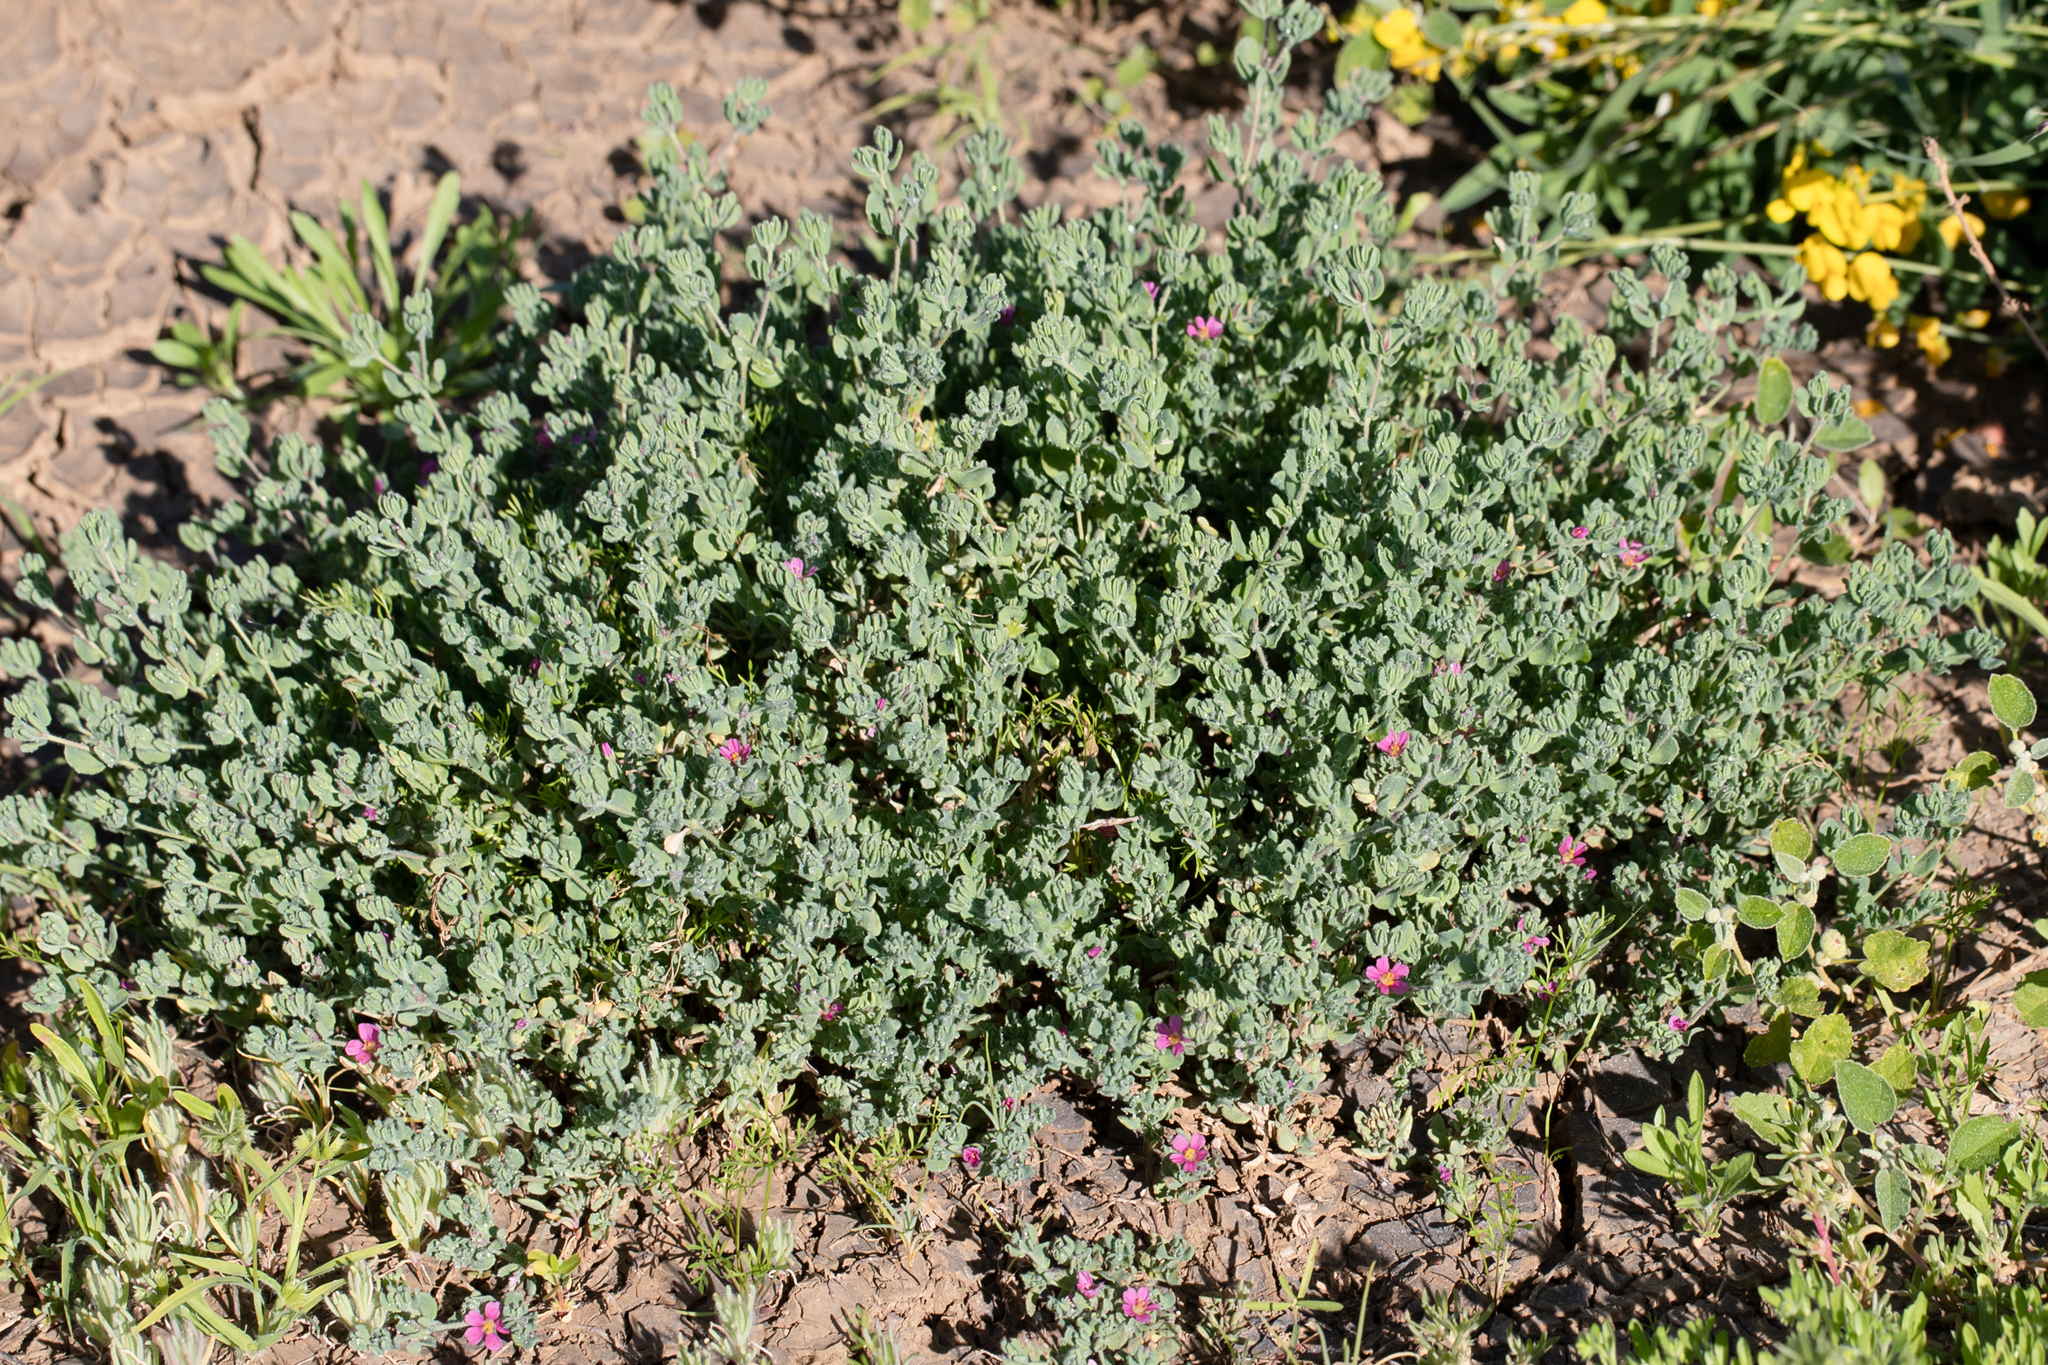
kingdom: Plantae
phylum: Tracheophyta
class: Magnoliopsida
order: Caryophyllales
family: Frankeniaceae
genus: Frankenia
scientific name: Frankenia serpyllifolia
